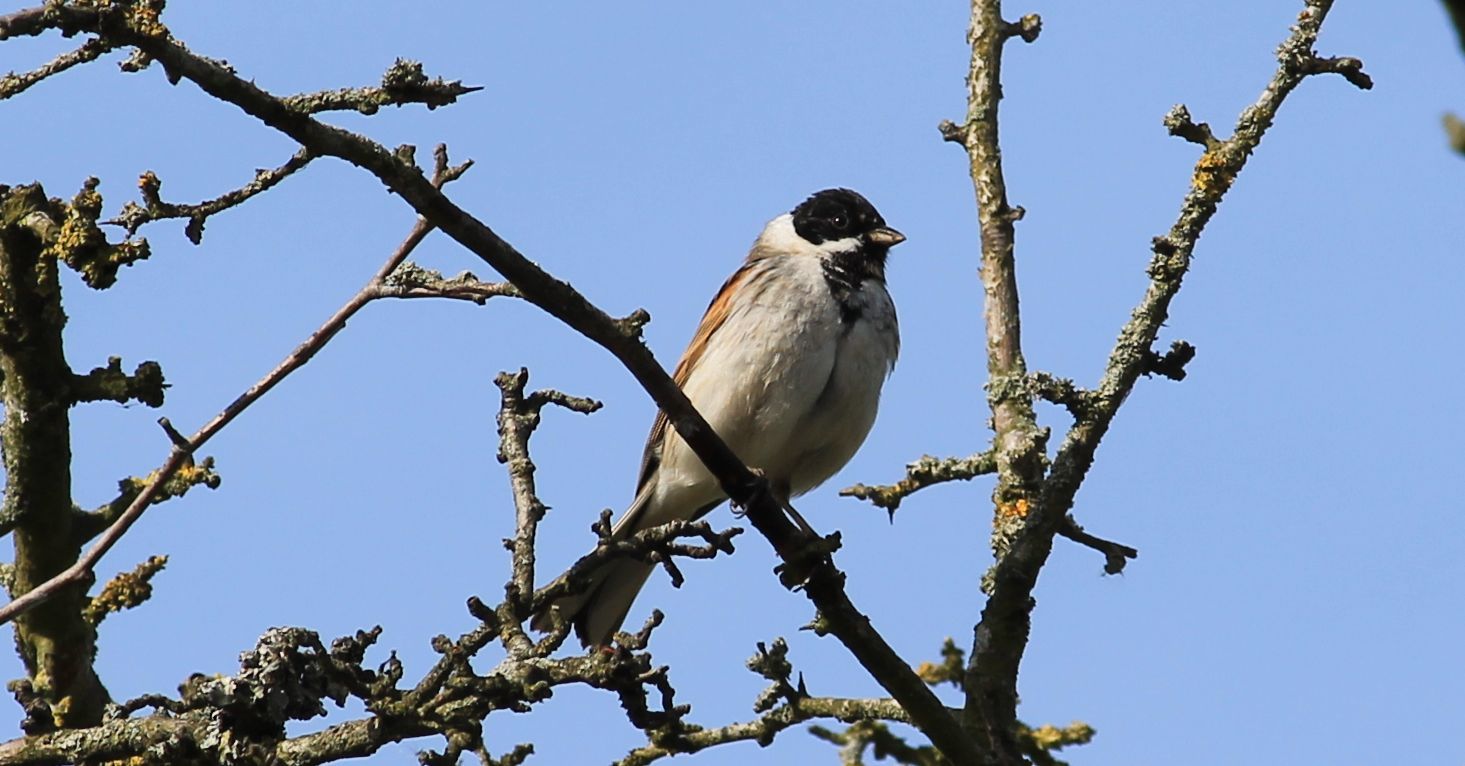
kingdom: Animalia
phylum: Chordata
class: Aves
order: Passeriformes
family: Emberizidae
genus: Emberiza
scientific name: Emberiza schoeniclus
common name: Reed bunting
